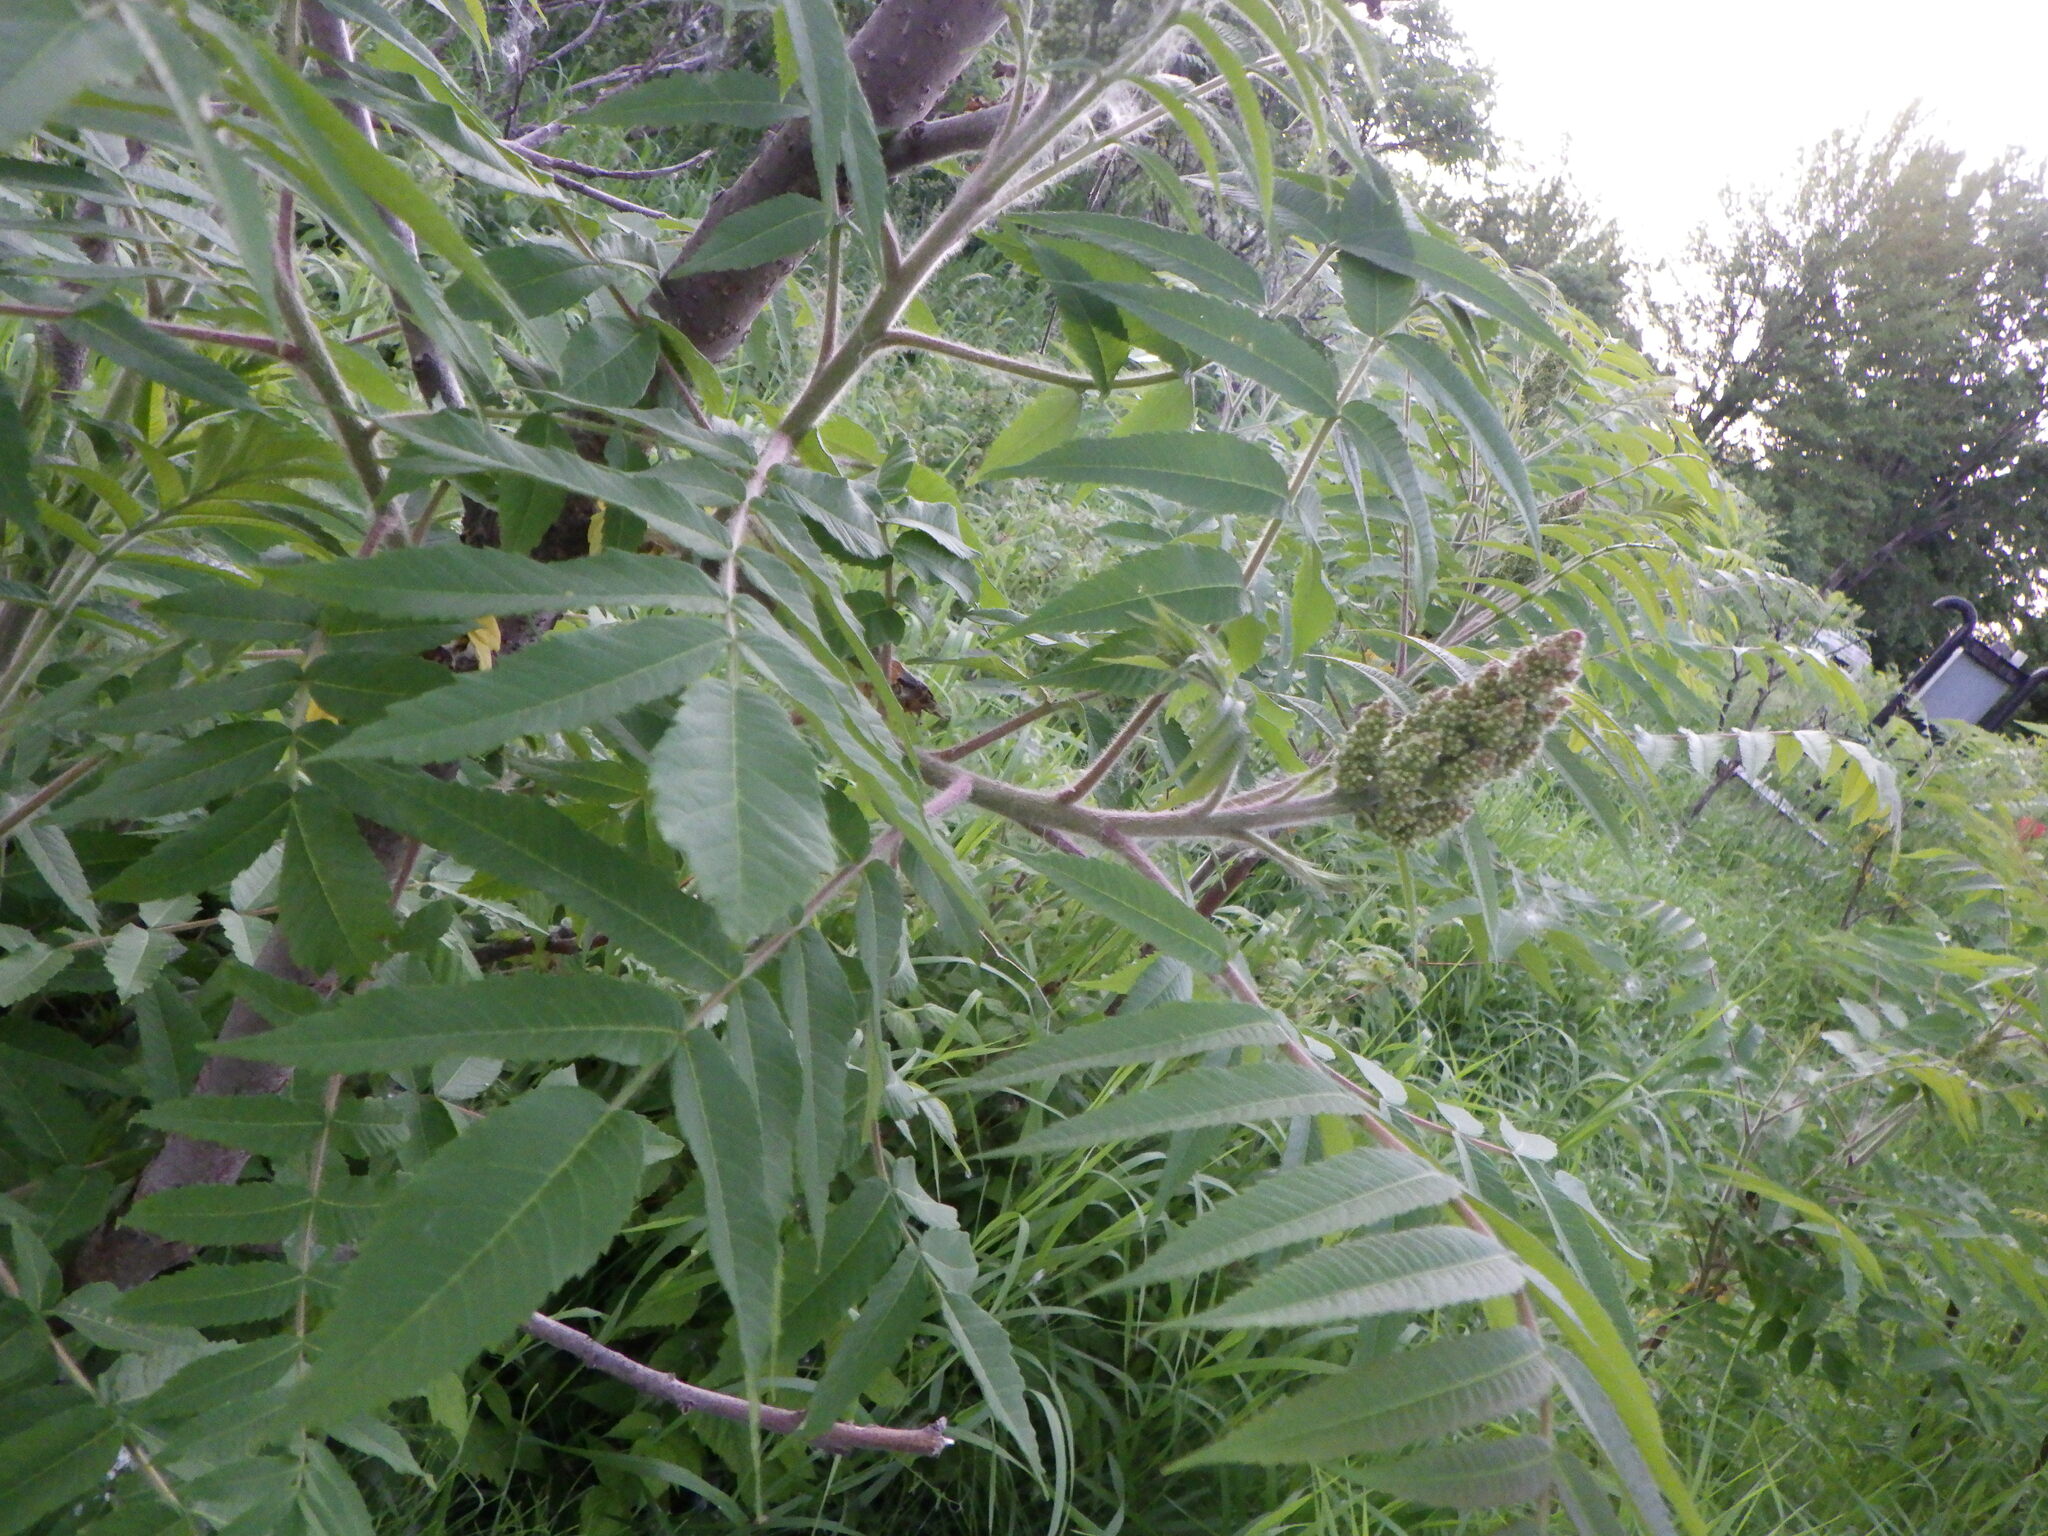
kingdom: Plantae
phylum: Tracheophyta
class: Magnoliopsida
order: Sapindales
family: Anacardiaceae
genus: Rhus
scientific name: Rhus typhina
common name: Staghorn sumac
